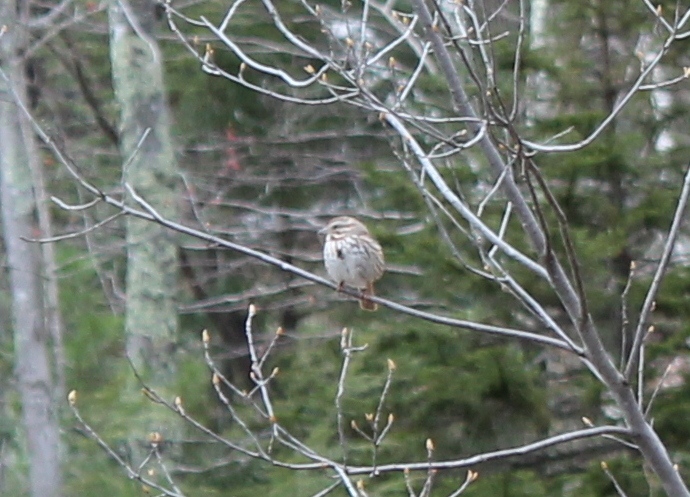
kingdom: Animalia
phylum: Chordata
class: Aves
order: Passeriformes
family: Passerellidae
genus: Melospiza
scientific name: Melospiza melodia
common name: Song sparrow
